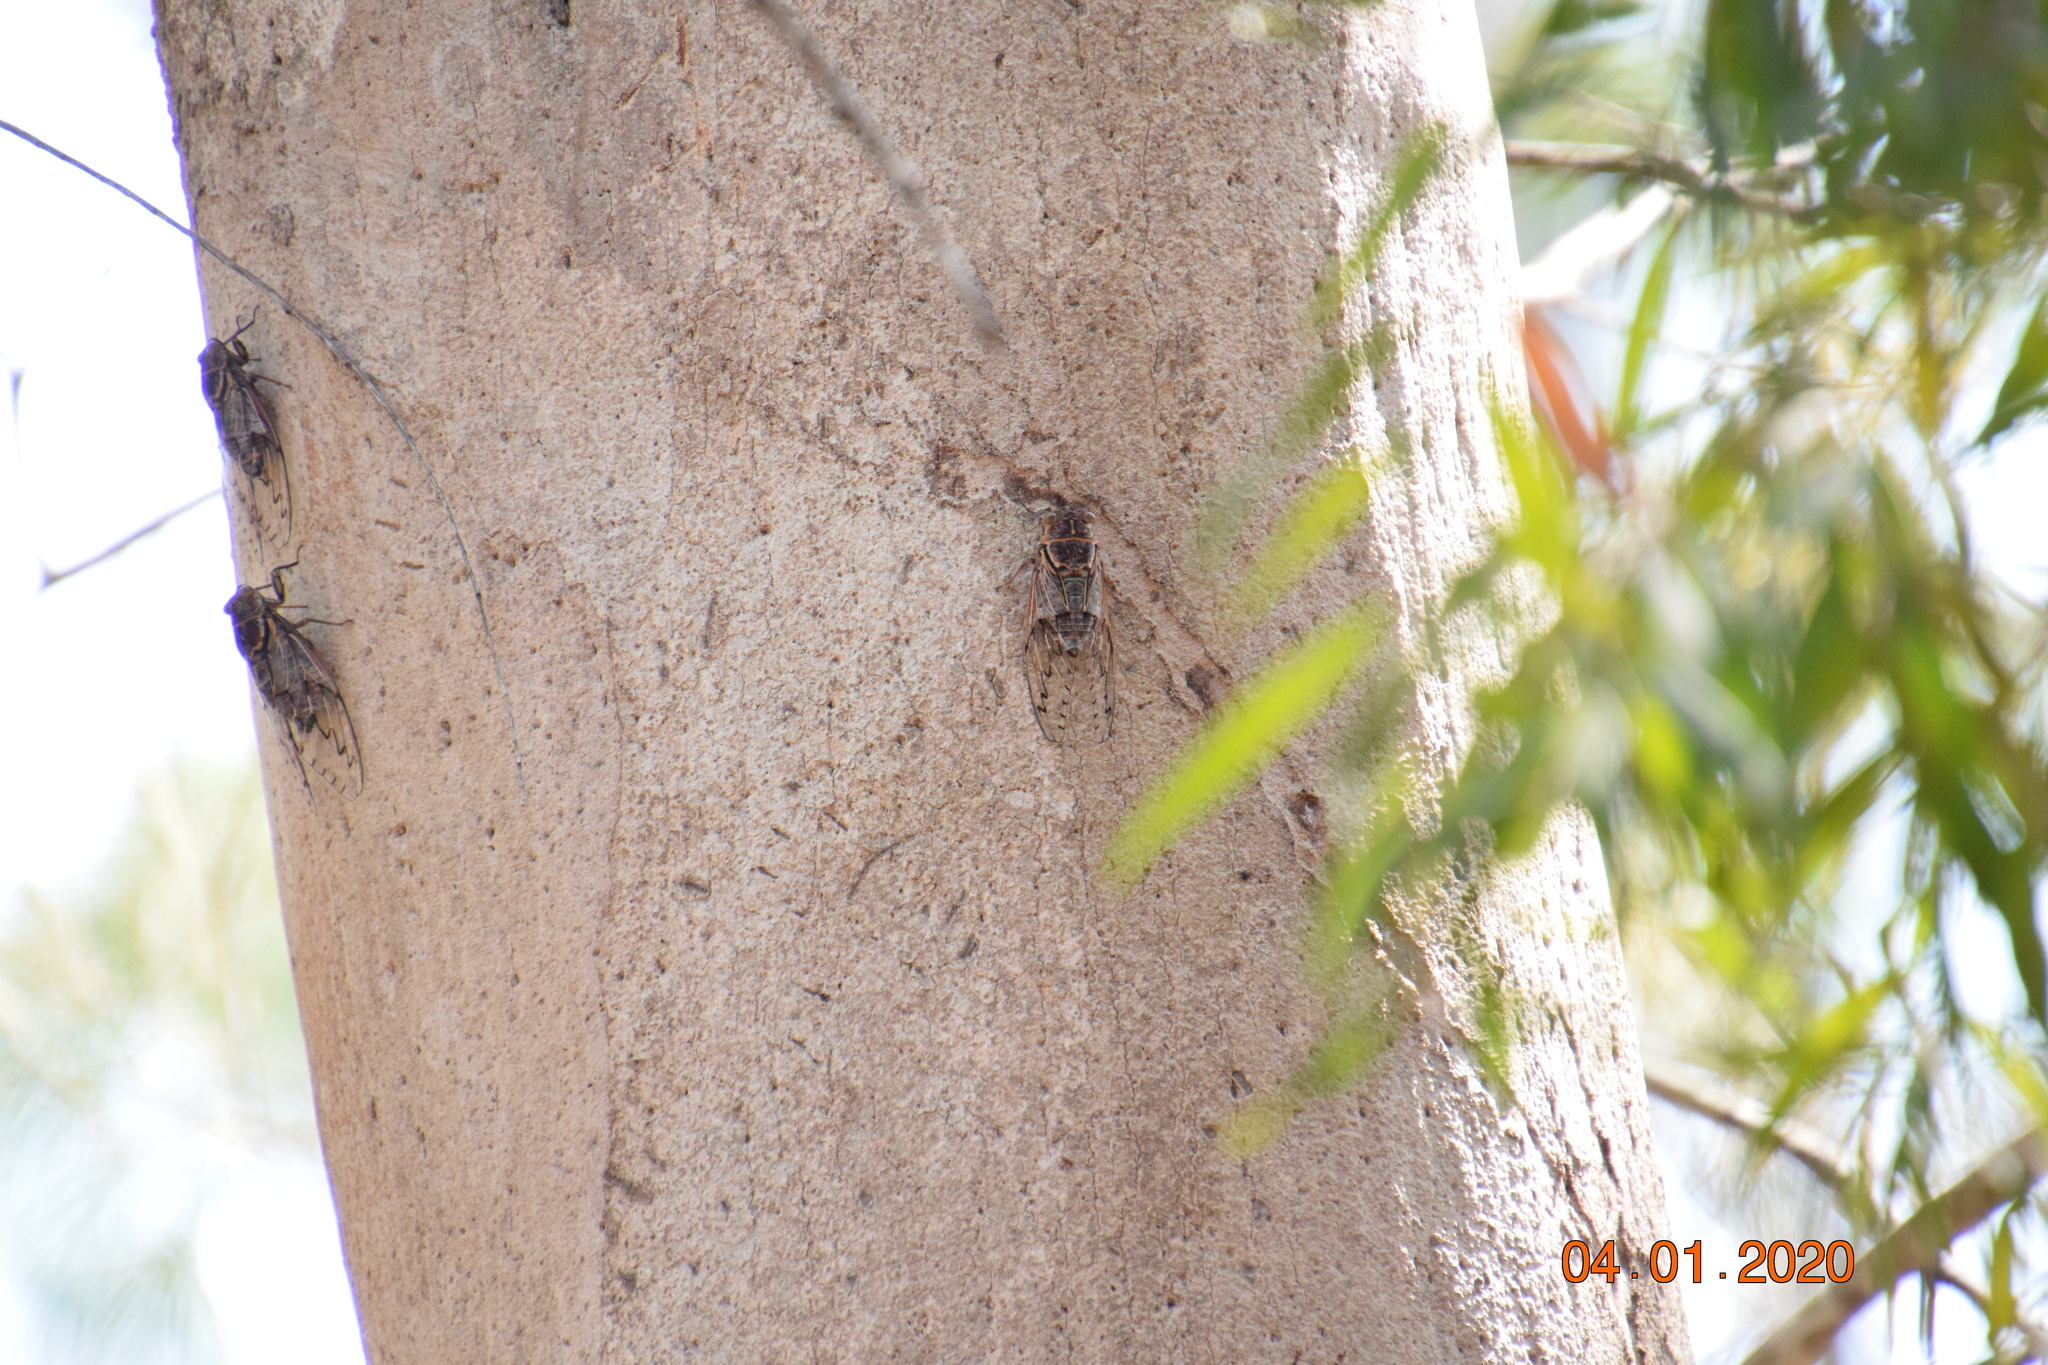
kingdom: Animalia
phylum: Arthropoda
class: Insecta
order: Hemiptera
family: Cicadidae
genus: Henicopsaltria
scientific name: Henicopsaltria eydouxii
